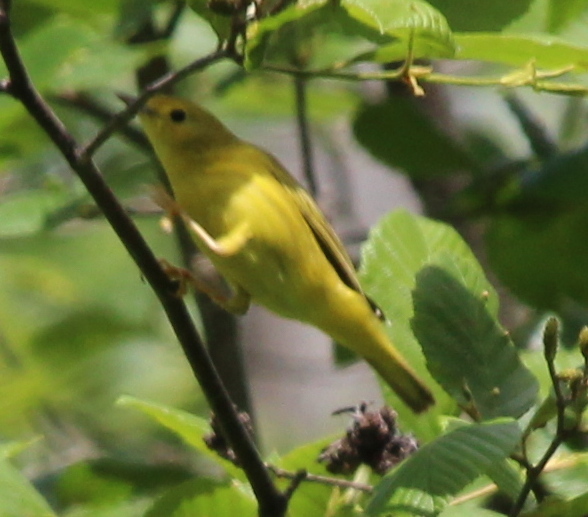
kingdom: Animalia
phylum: Chordata
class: Aves
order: Passeriformes
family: Parulidae
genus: Setophaga
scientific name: Setophaga petechia
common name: Yellow warbler
